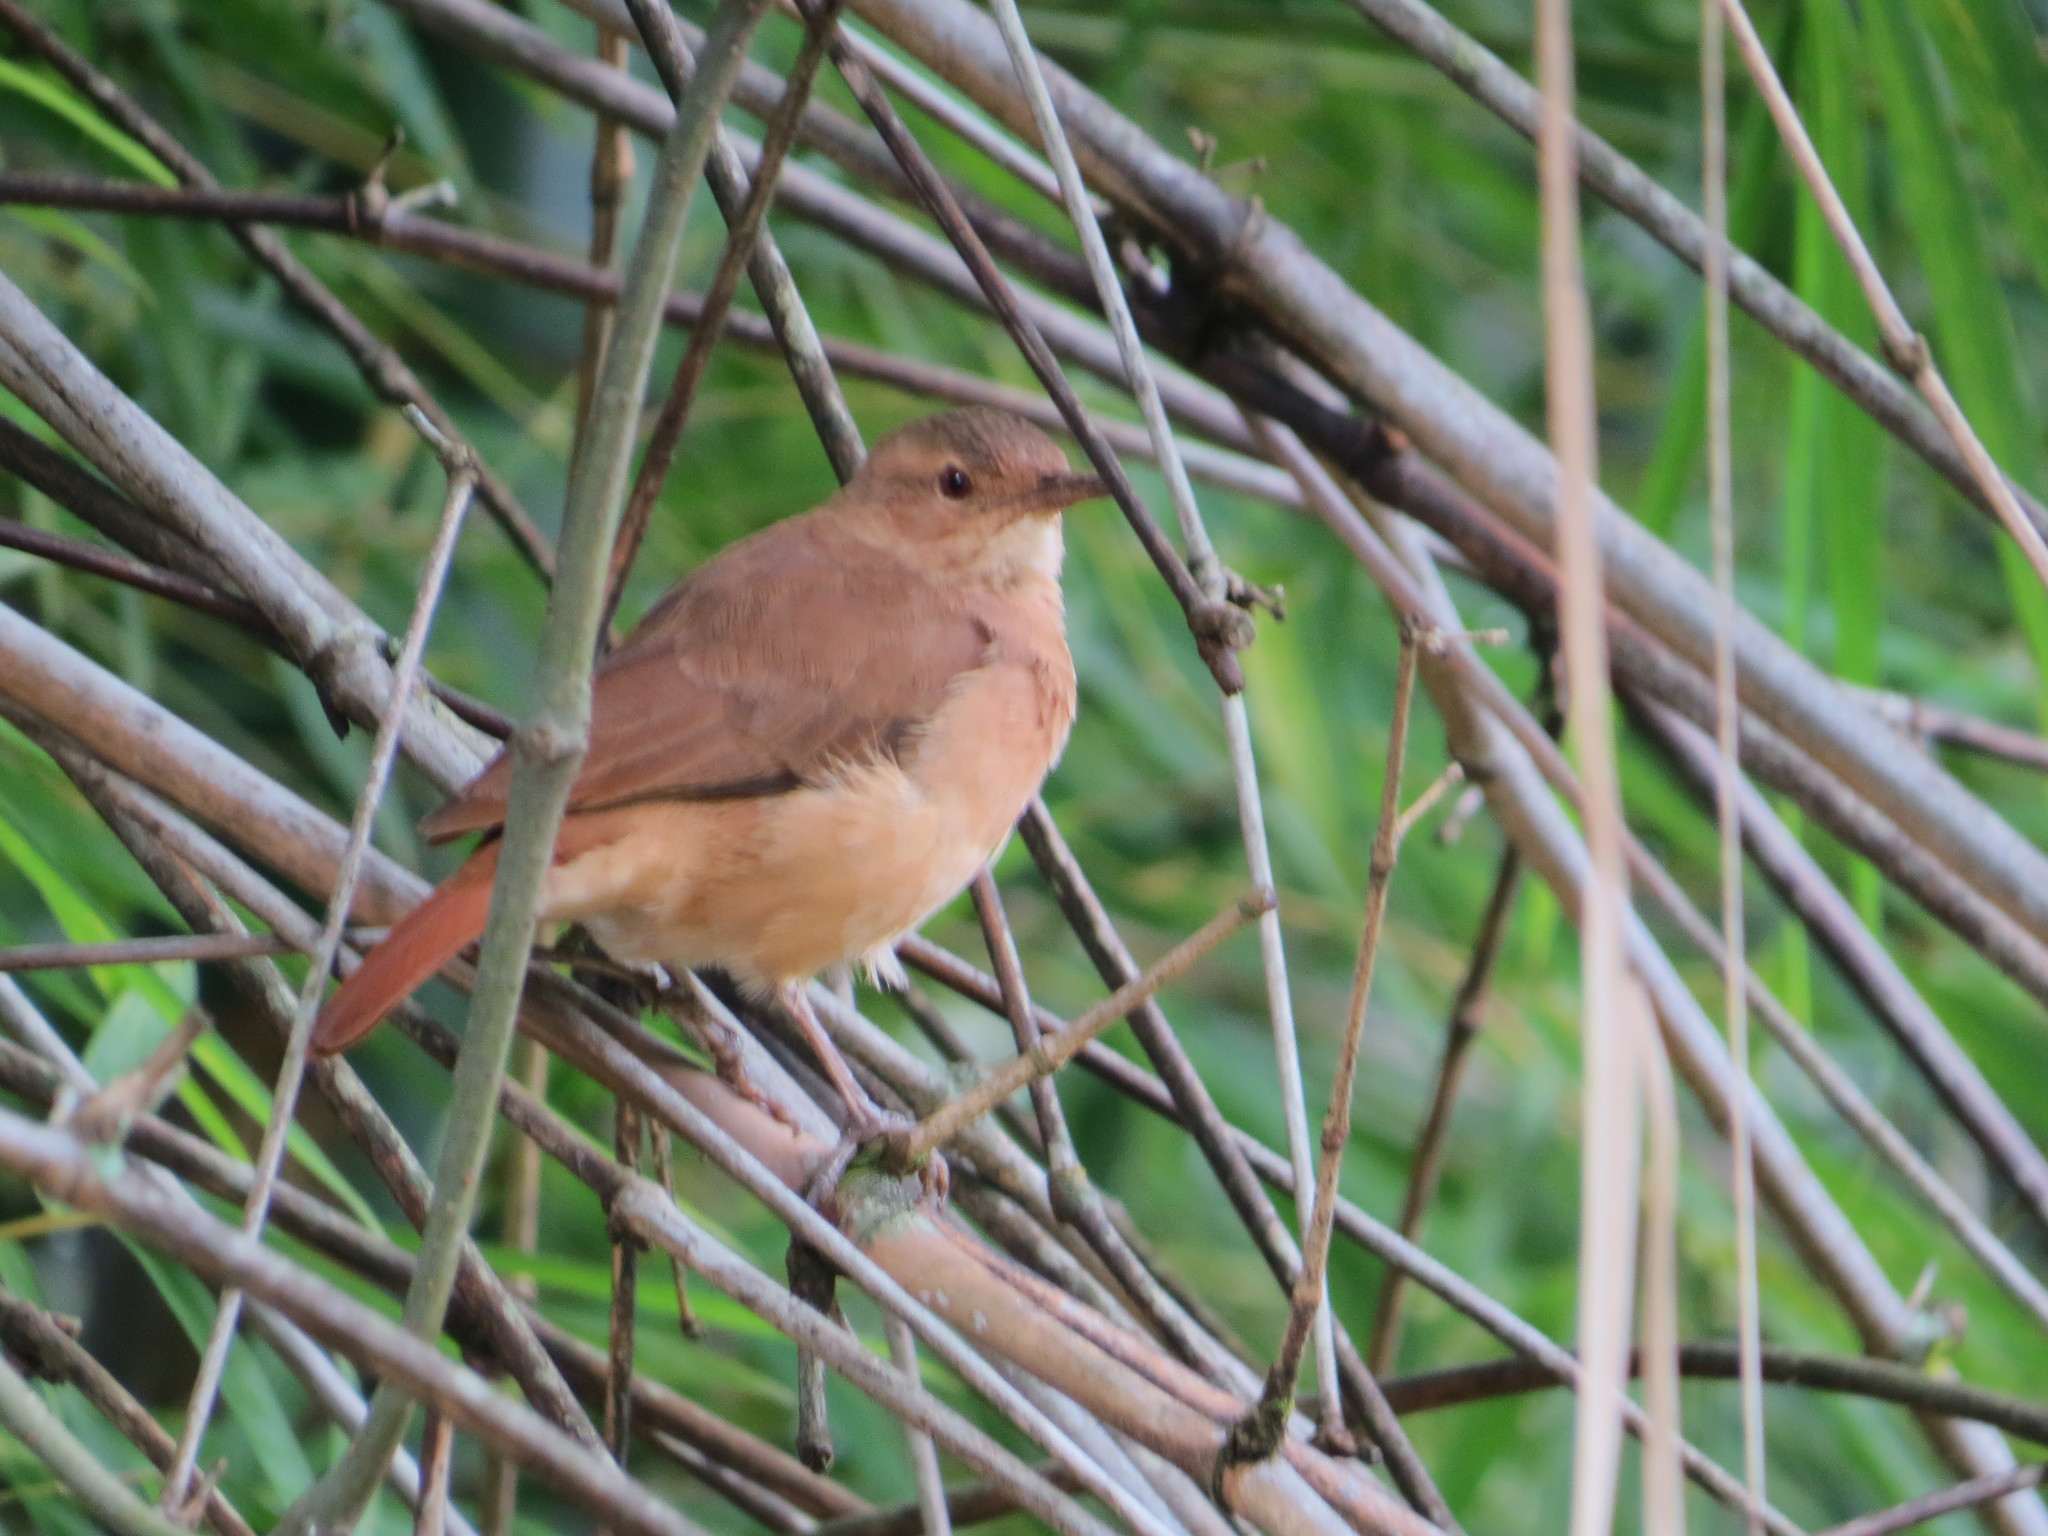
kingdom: Animalia
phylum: Chordata
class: Aves
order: Passeriformes
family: Furnariidae
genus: Furnarius
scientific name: Furnarius rufus
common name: Rufous hornero
